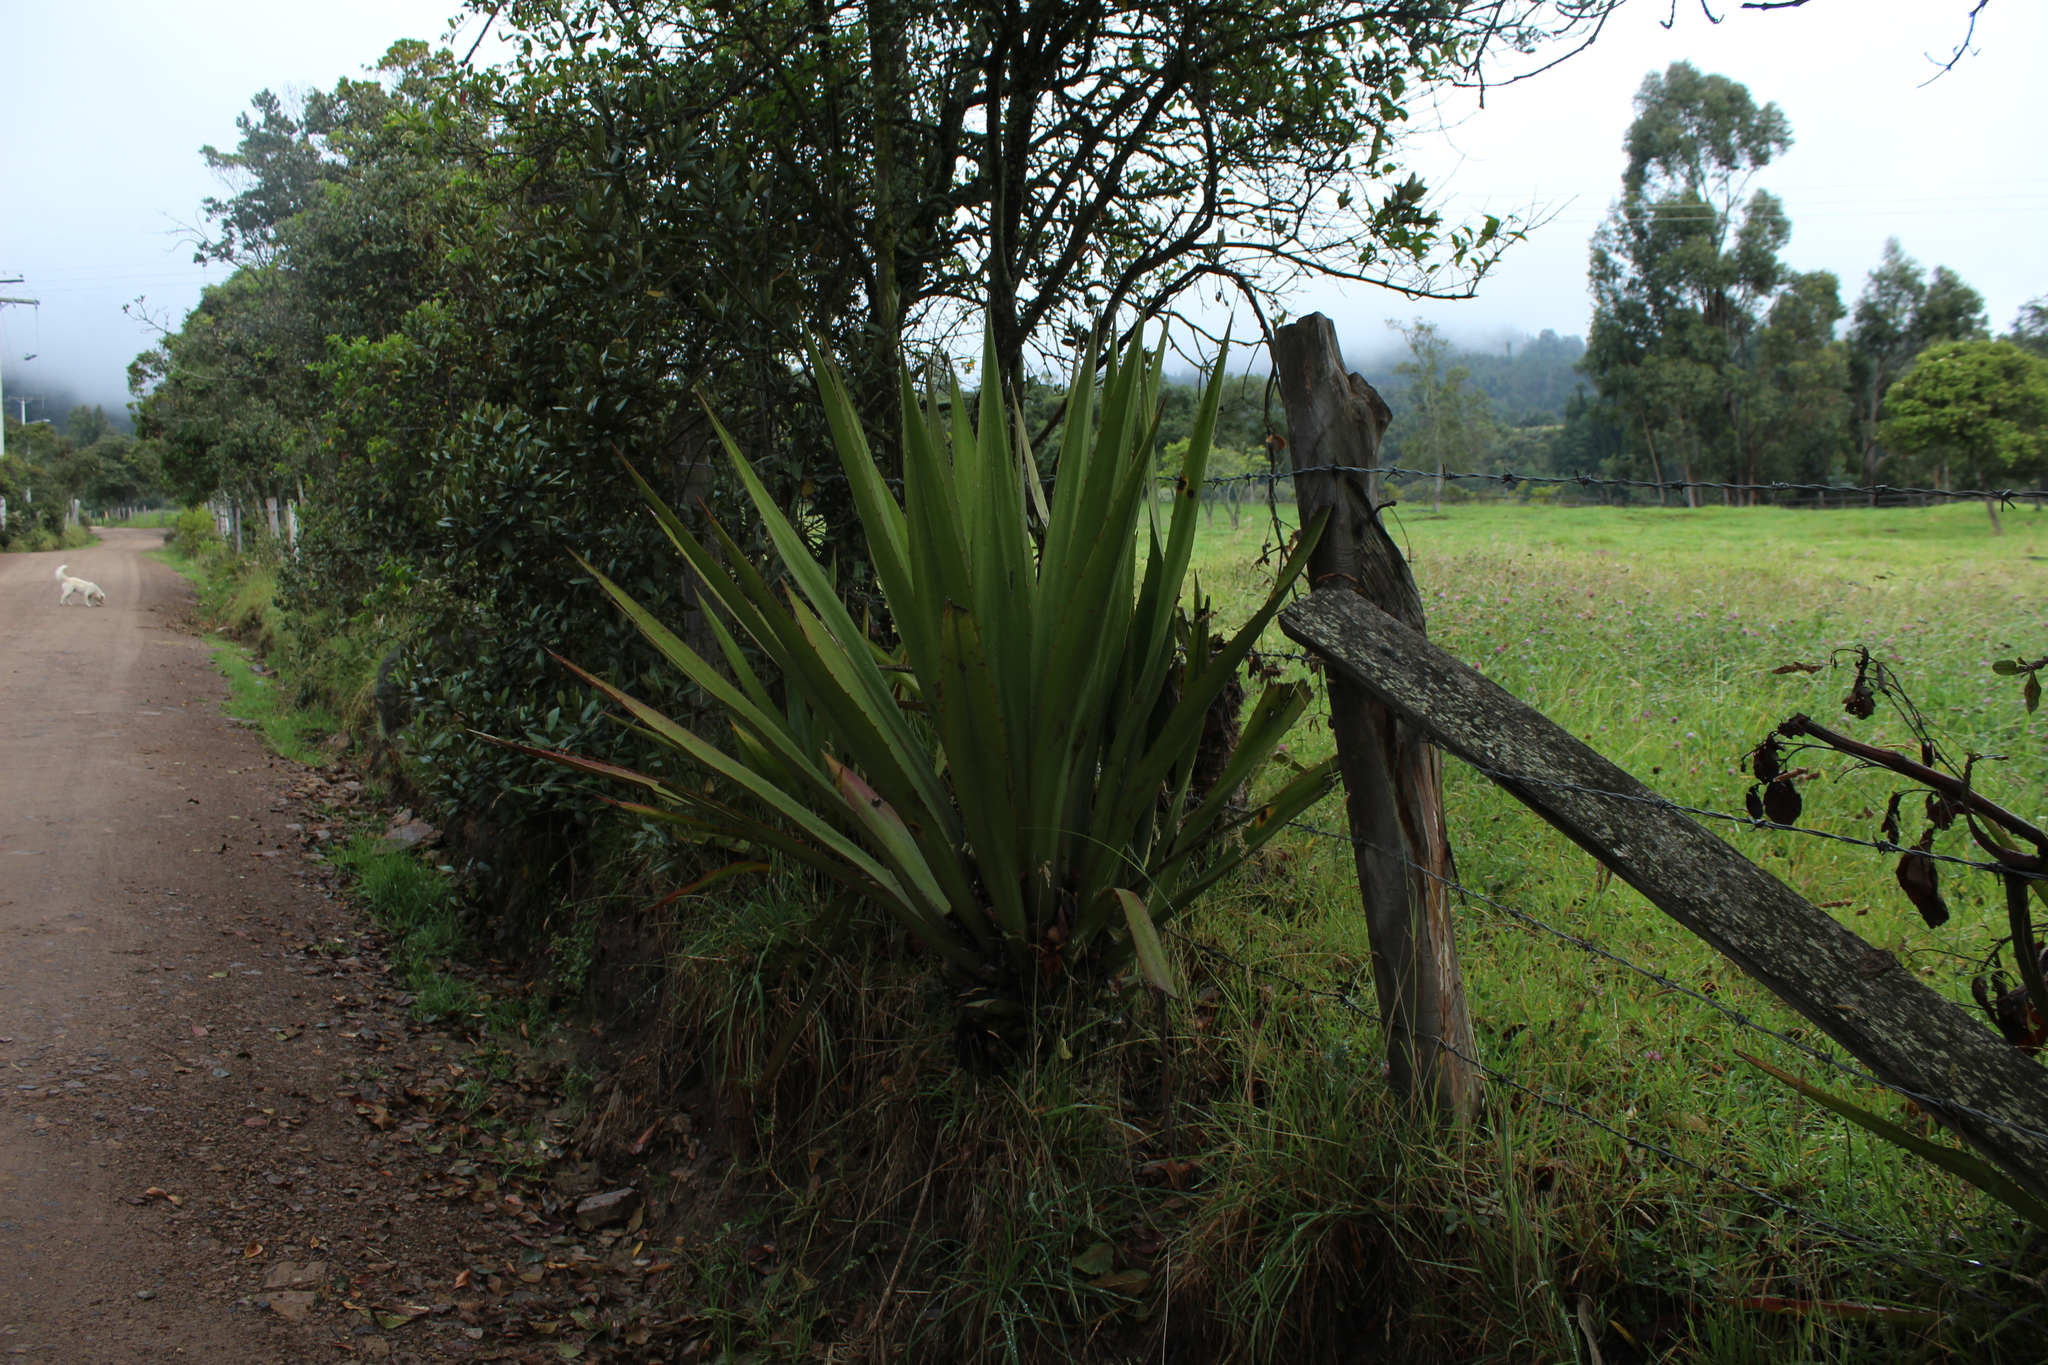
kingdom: Plantae
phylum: Tracheophyta
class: Liliopsida
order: Asparagales
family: Asparagaceae
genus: Furcraea
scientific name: Furcraea cabuya
